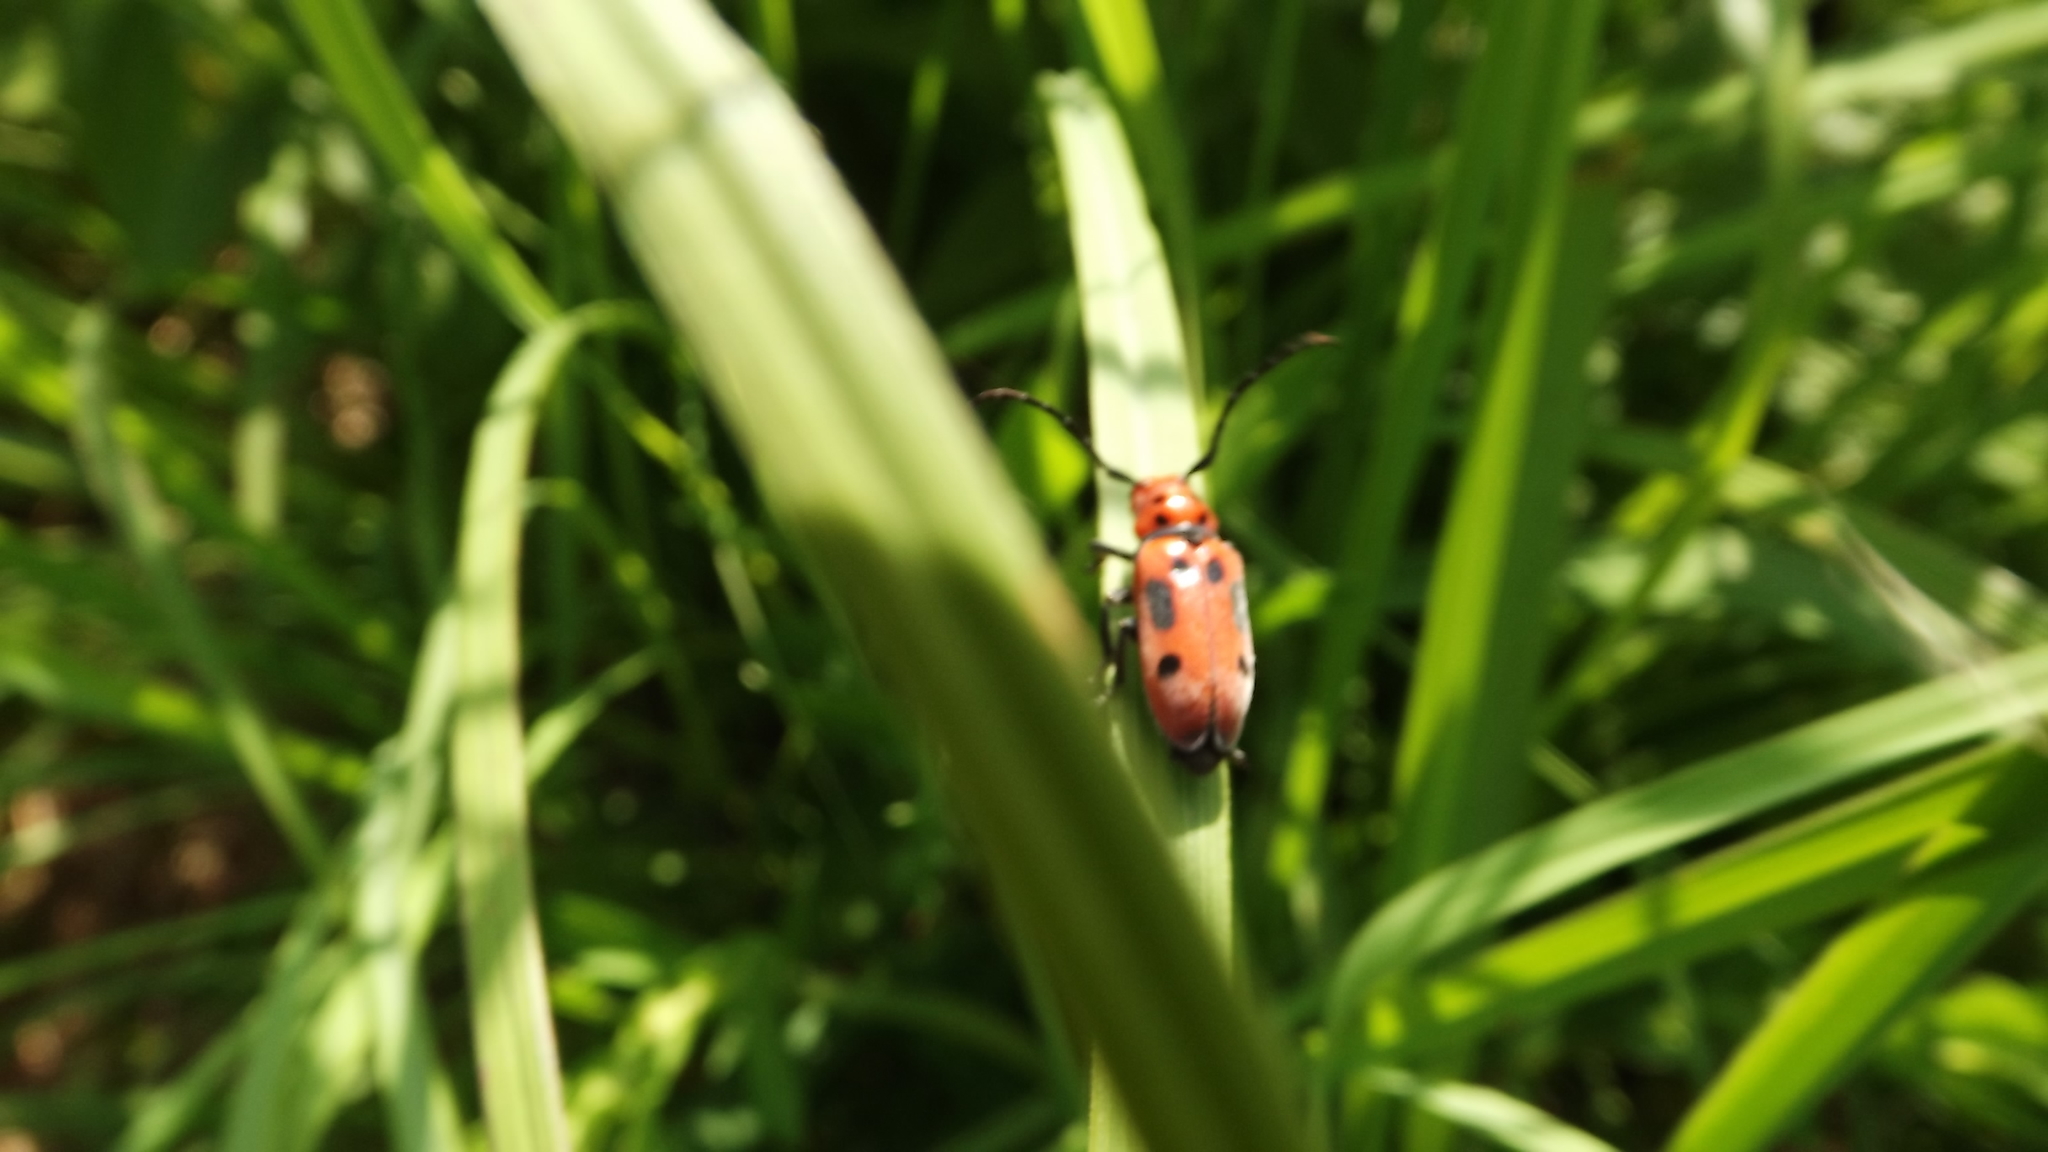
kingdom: Animalia
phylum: Arthropoda
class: Insecta
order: Coleoptera
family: Cerambycidae
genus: Tetraopes
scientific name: Tetraopes tetrophthalmus
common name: Red milkweed beetle
